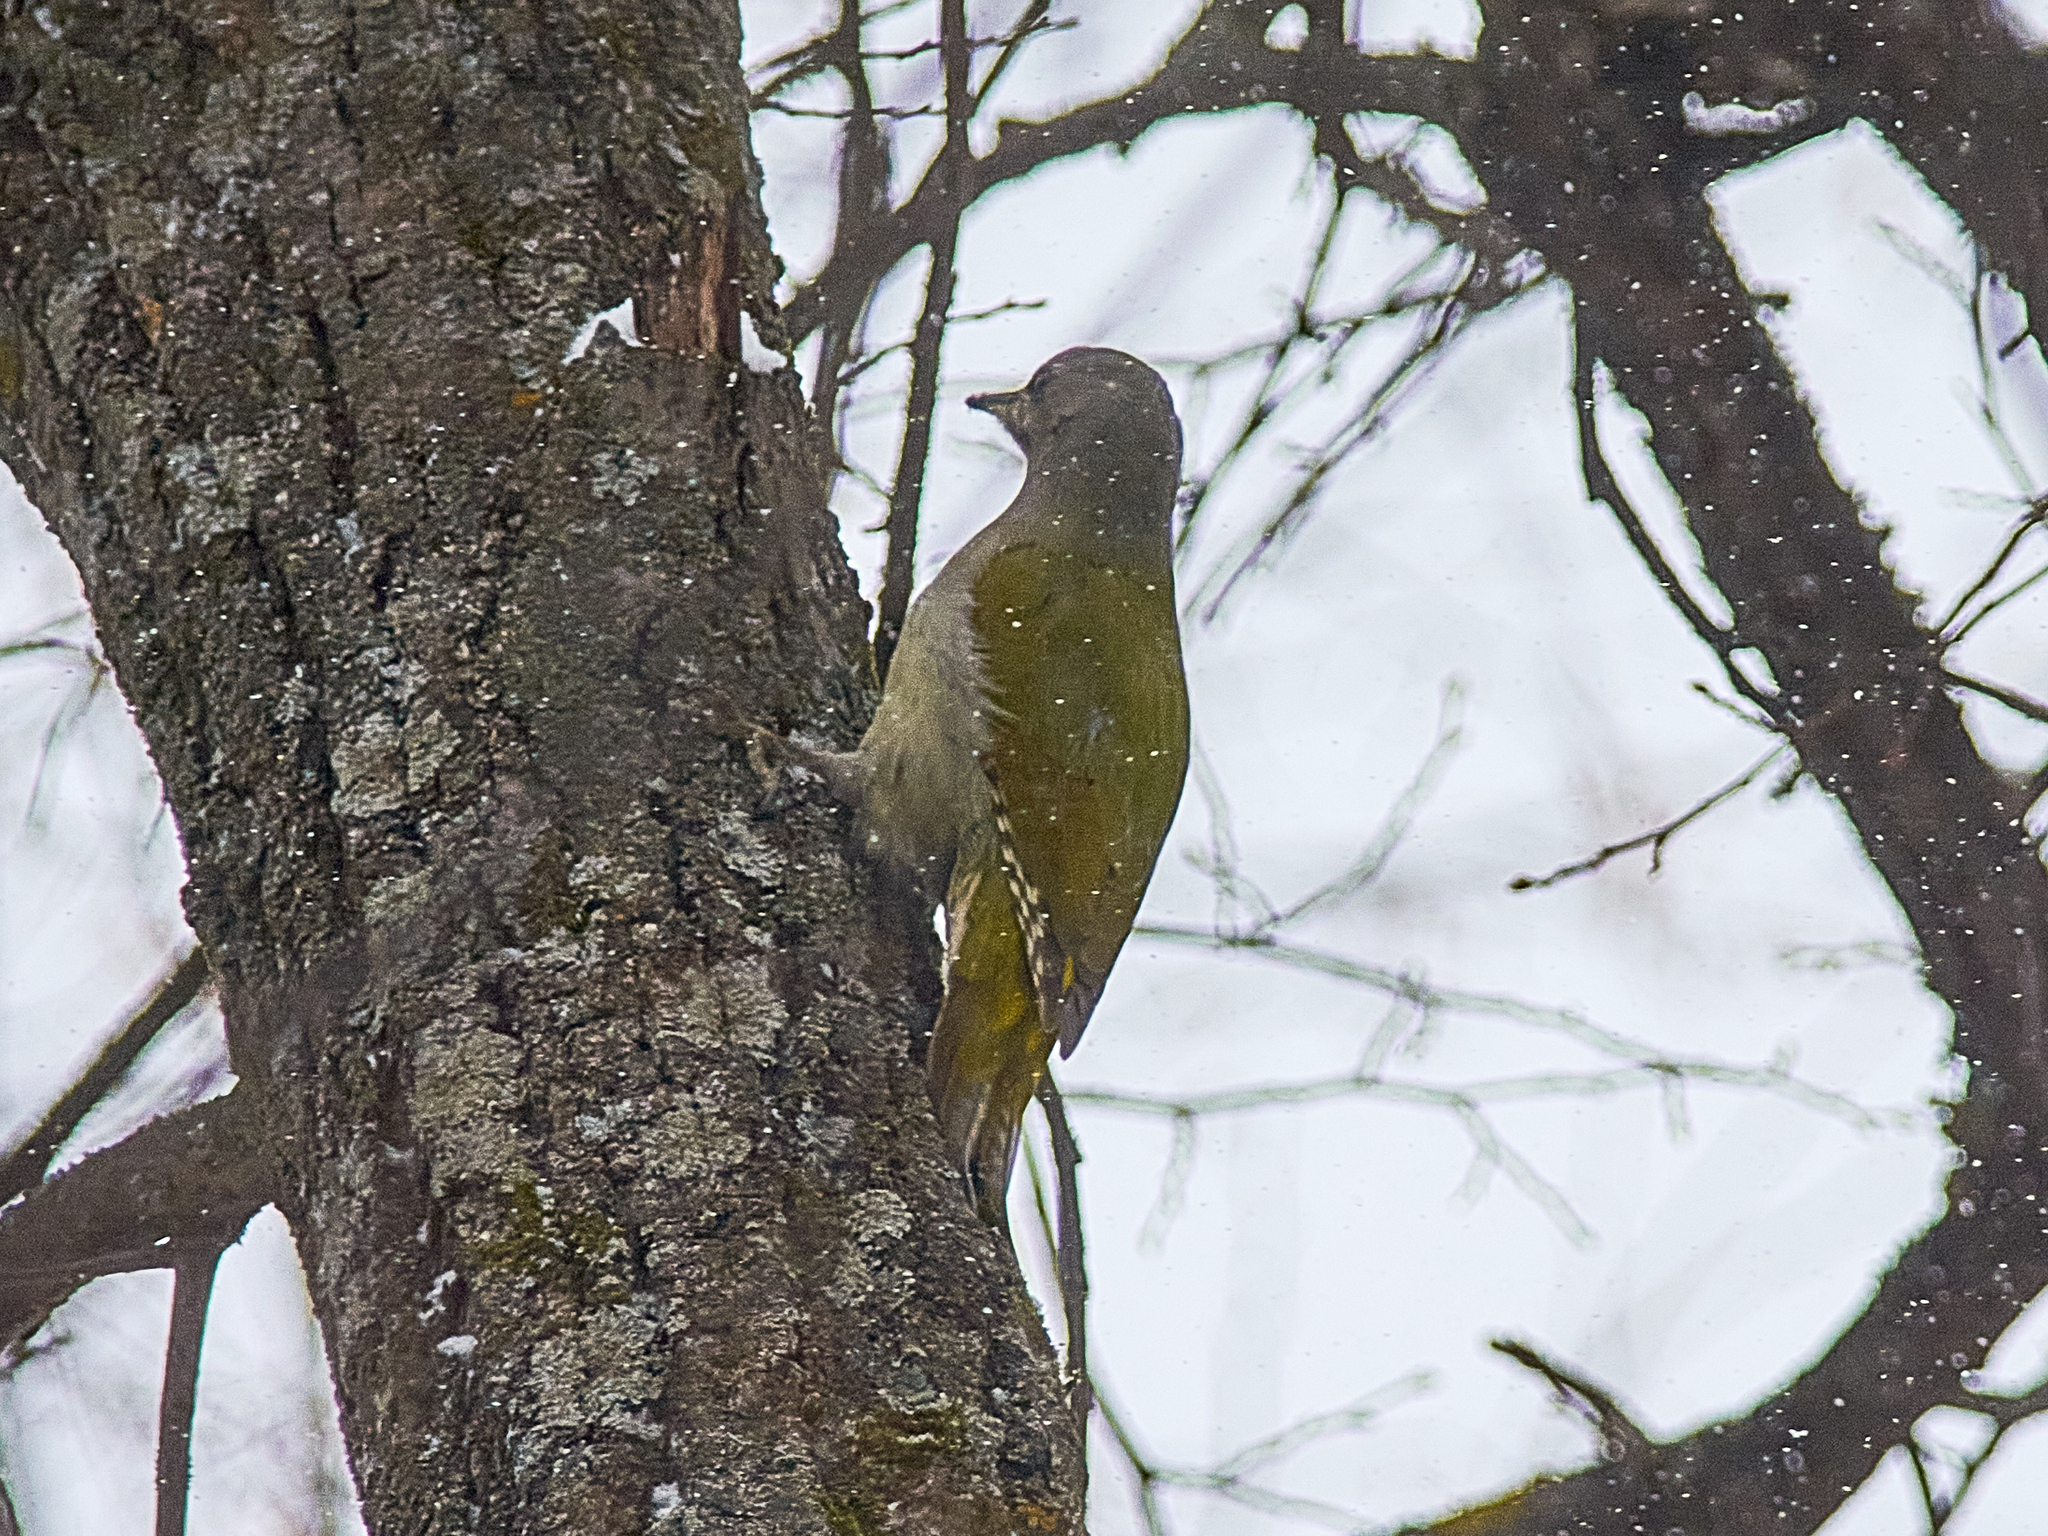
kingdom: Animalia
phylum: Chordata
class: Aves
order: Piciformes
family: Picidae
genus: Picus
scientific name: Picus canus
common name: Grey-headed woodpecker
